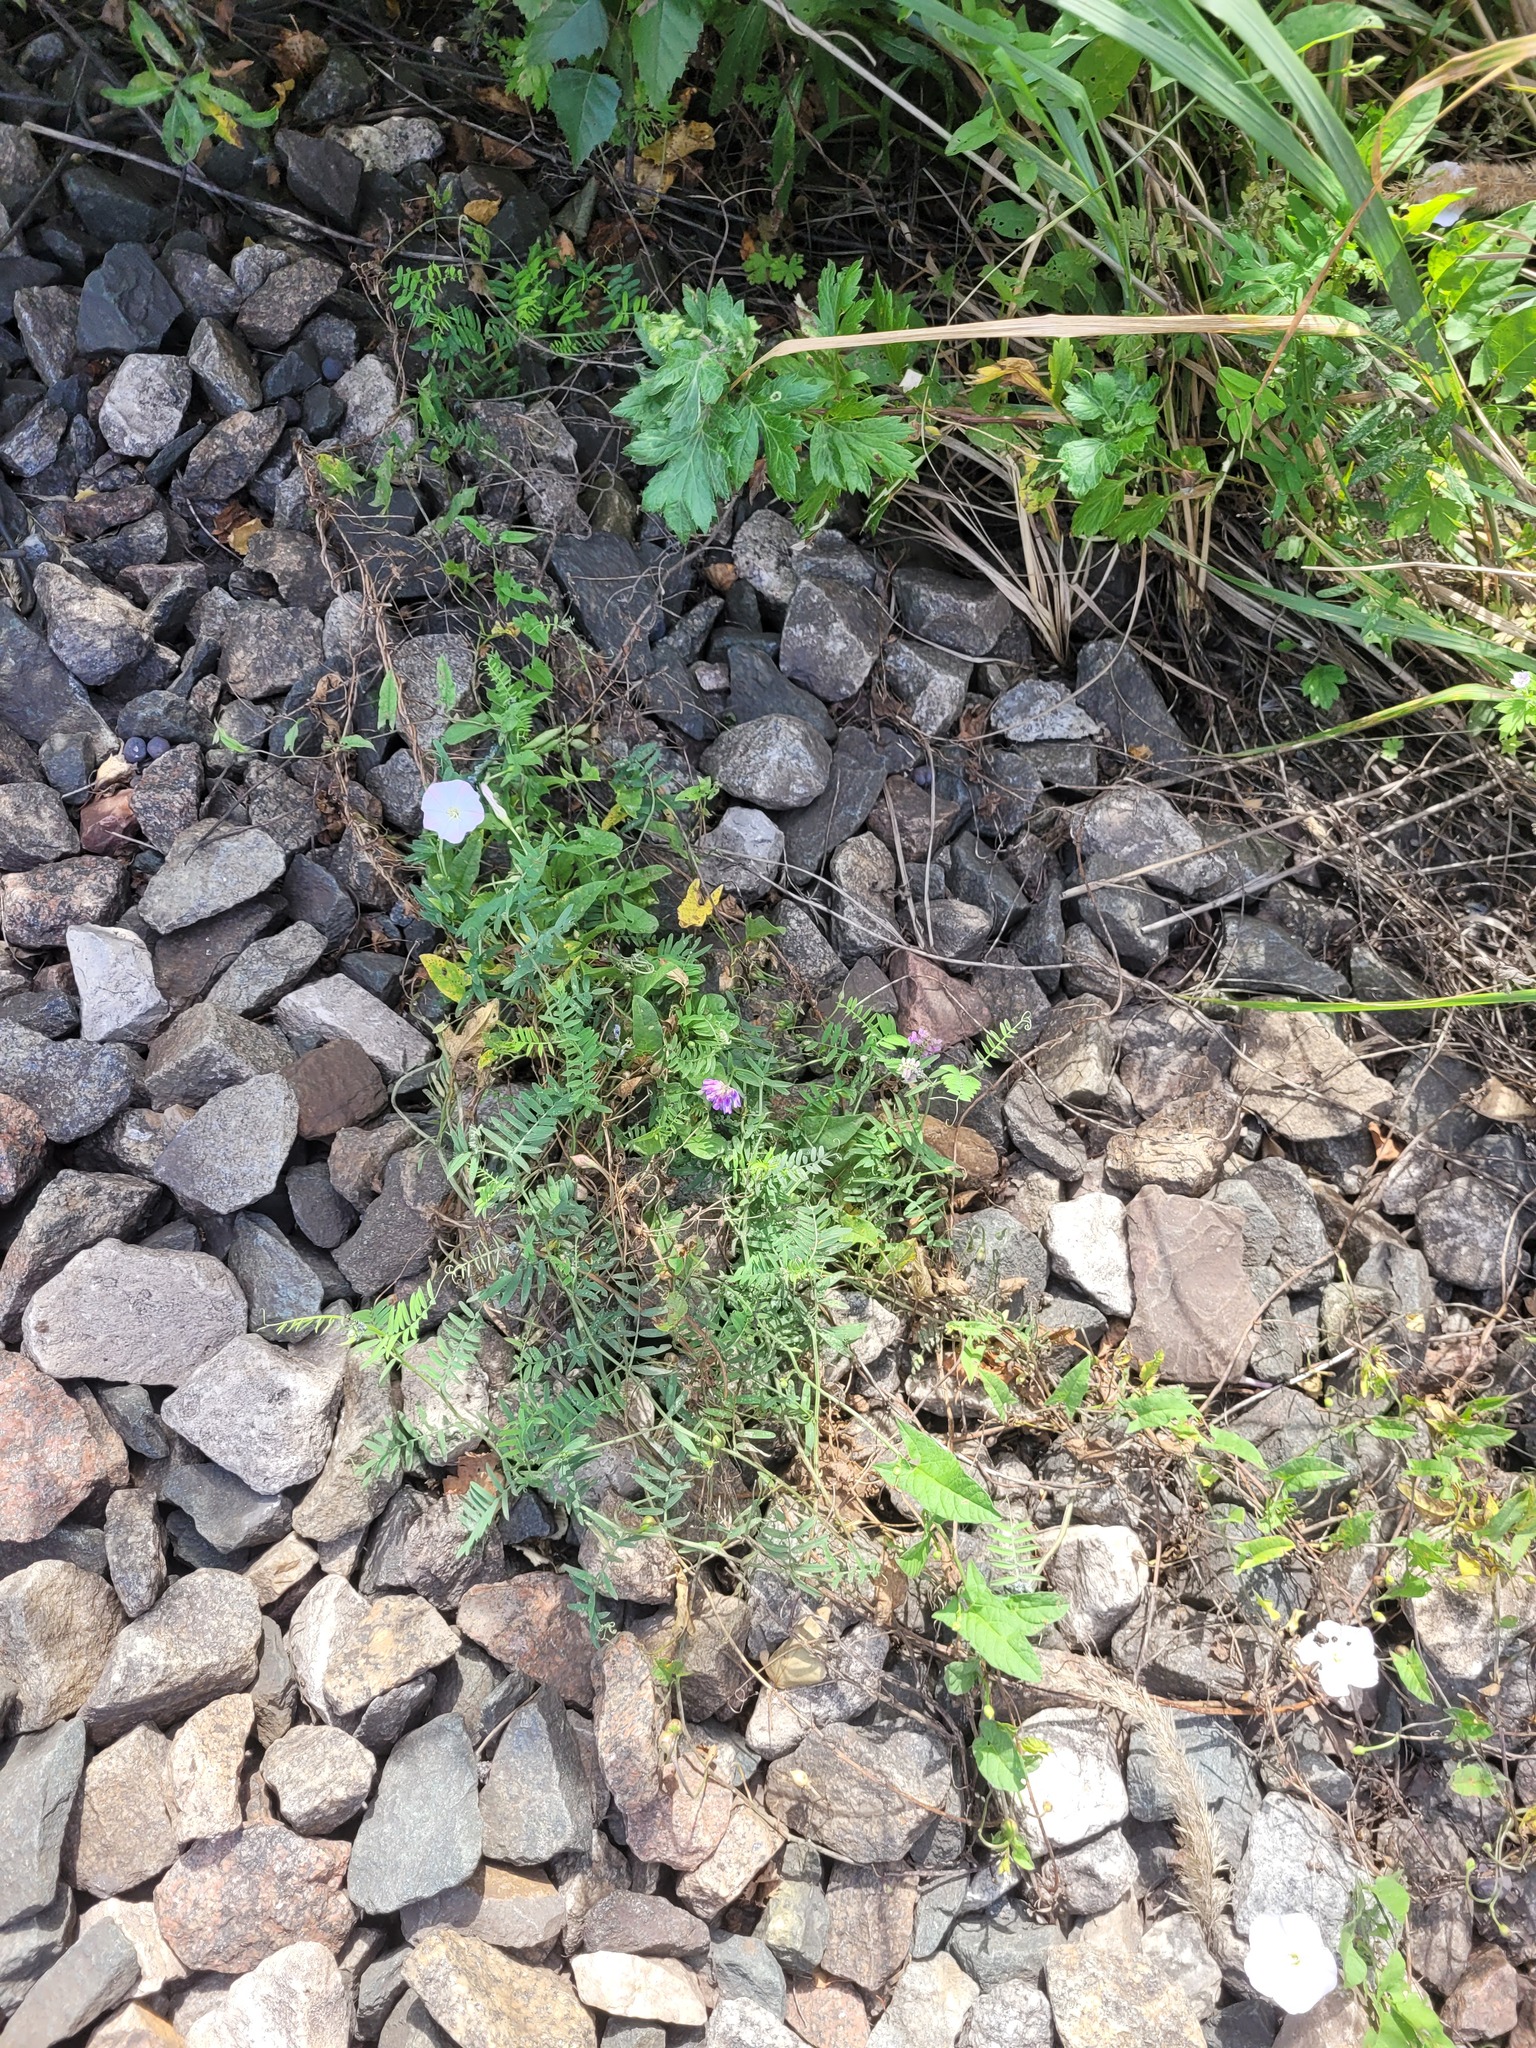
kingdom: Plantae
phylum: Tracheophyta
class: Magnoliopsida
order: Fabales
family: Fabaceae
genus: Vicia
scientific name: Vicia cracca
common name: Bird vetch
